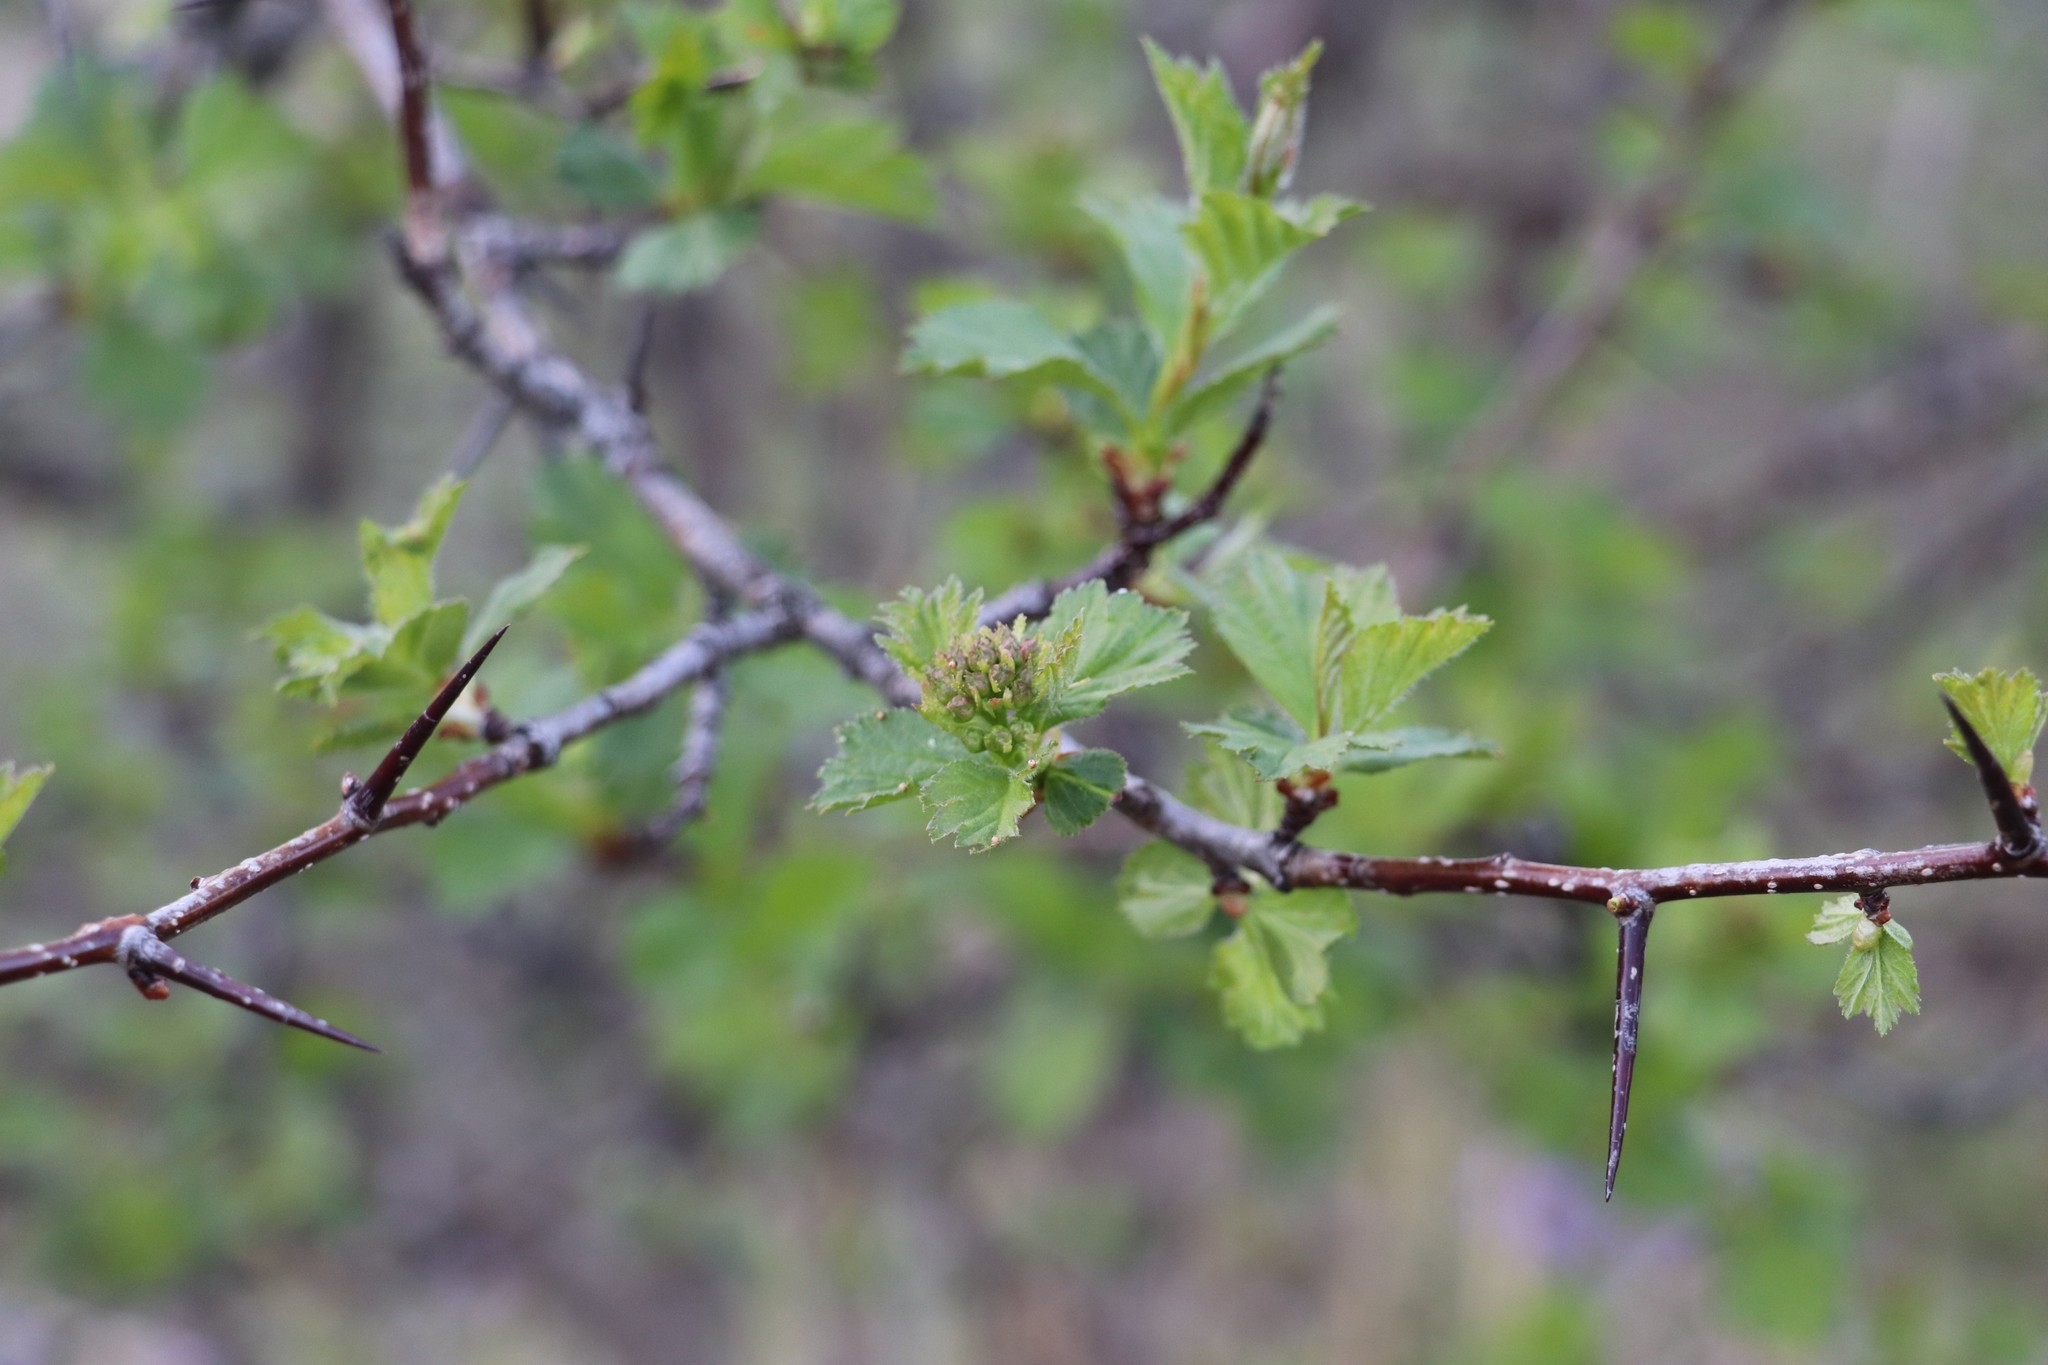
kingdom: Plantae
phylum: Tracheophyta
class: Magnoliopsida
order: Rosales
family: Rosaceae
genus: Crataegus
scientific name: Crataegus sanguinea
